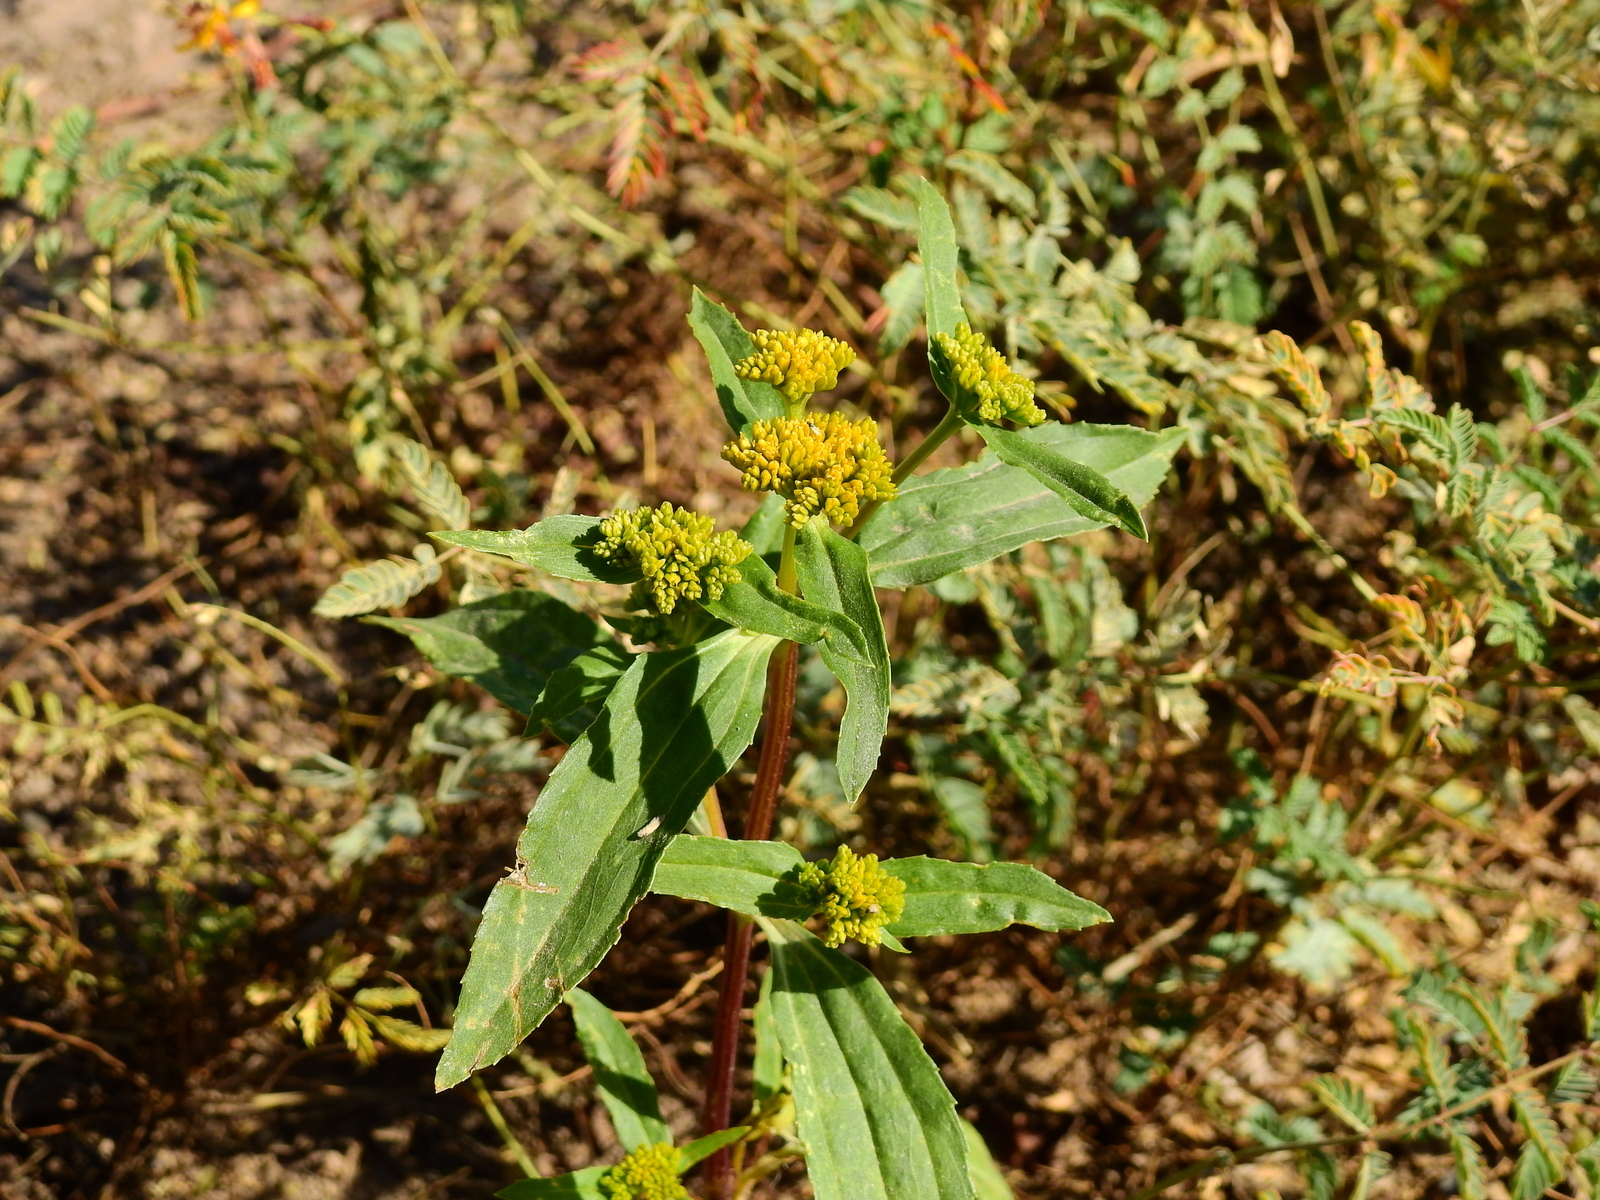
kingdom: Plantae
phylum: Tracheophyta
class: Magnoliopsida
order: Asterales
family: Asteraceae
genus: Flaveria
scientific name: Flaveria bidentis
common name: Coastal plain yellowtops
